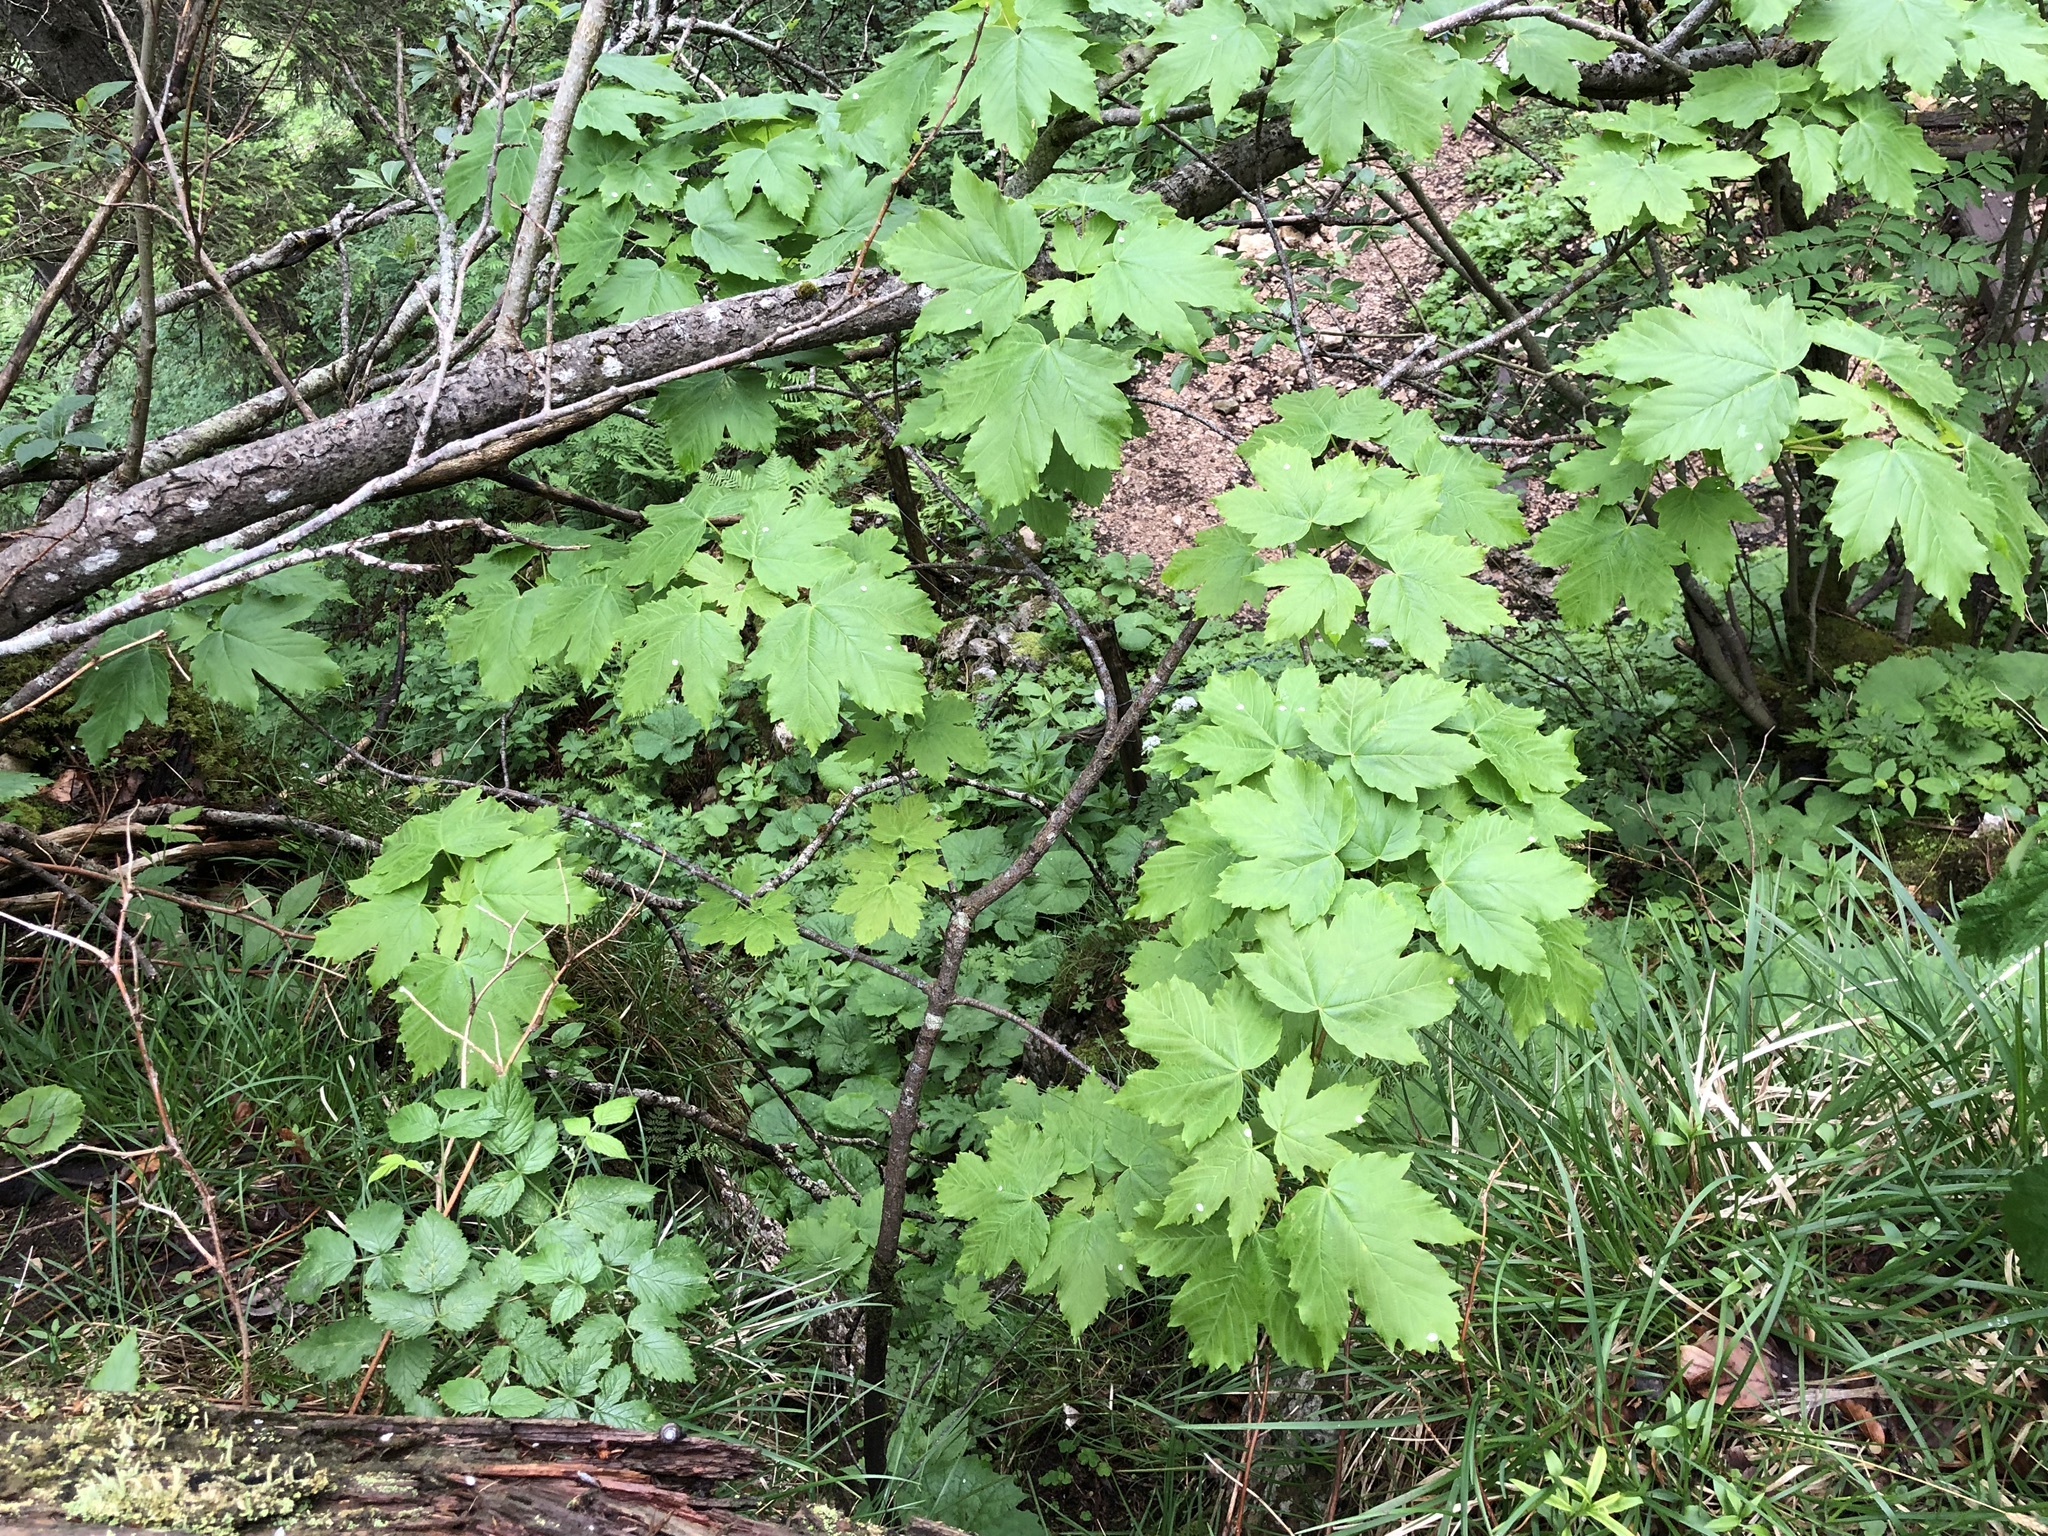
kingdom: Plantae
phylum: Tracheophyta
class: Magnoliopsida
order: Sapindales
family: Sapindaceae
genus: Acer
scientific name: Acer pseudoplatanus
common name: Sycamore
